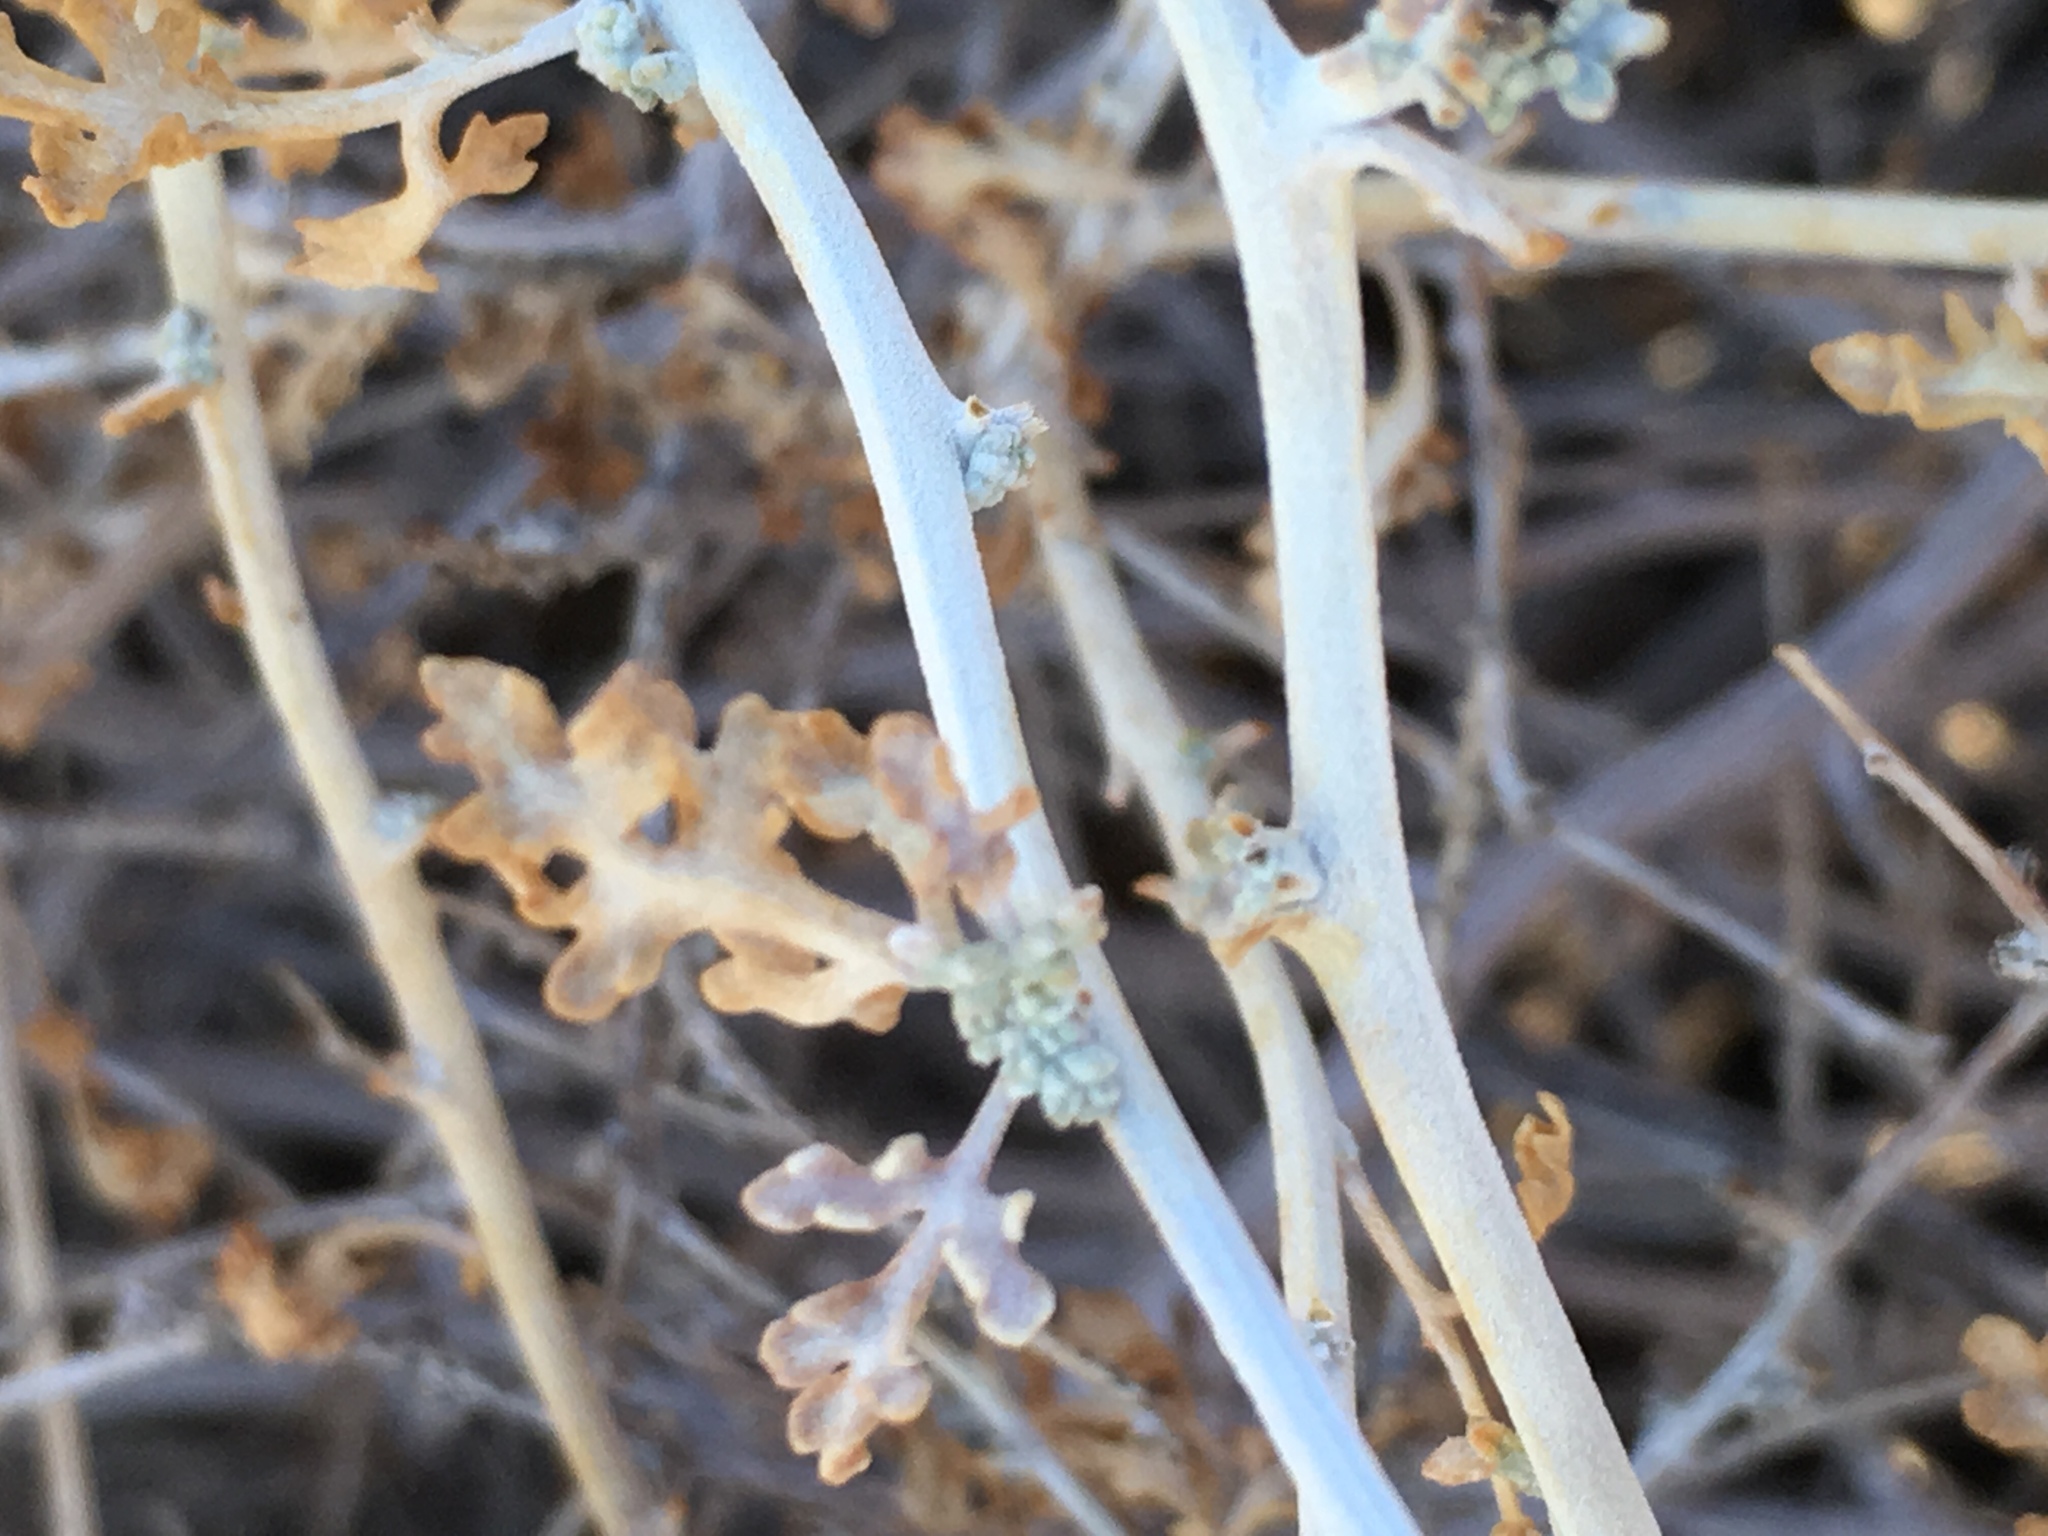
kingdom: Plantae
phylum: Tracheophyta
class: Magnoliopsida
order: Asterales
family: Asteraceae
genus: Ambrosia
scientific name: Ambrosia dumosa
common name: Bur-sage
